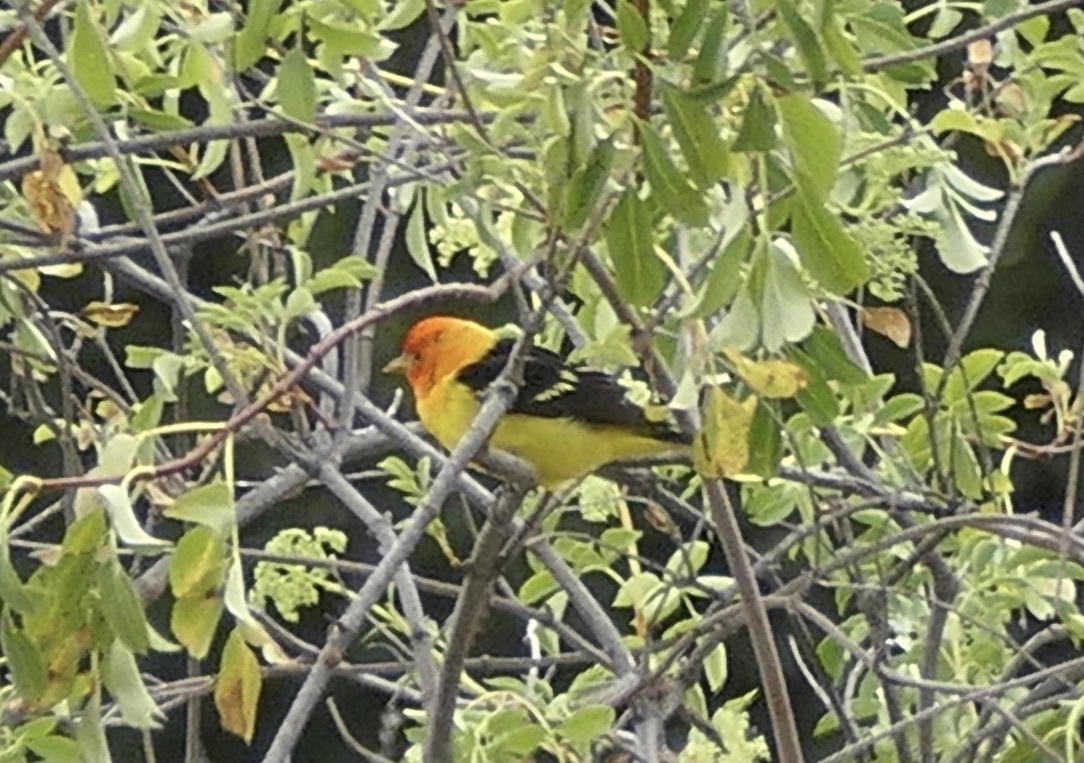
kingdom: Animalia
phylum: Chordata
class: Aves
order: Passeriformes
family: Cardinalidae
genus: Piranga
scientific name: Piranga ludoviciana
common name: Western tanager
